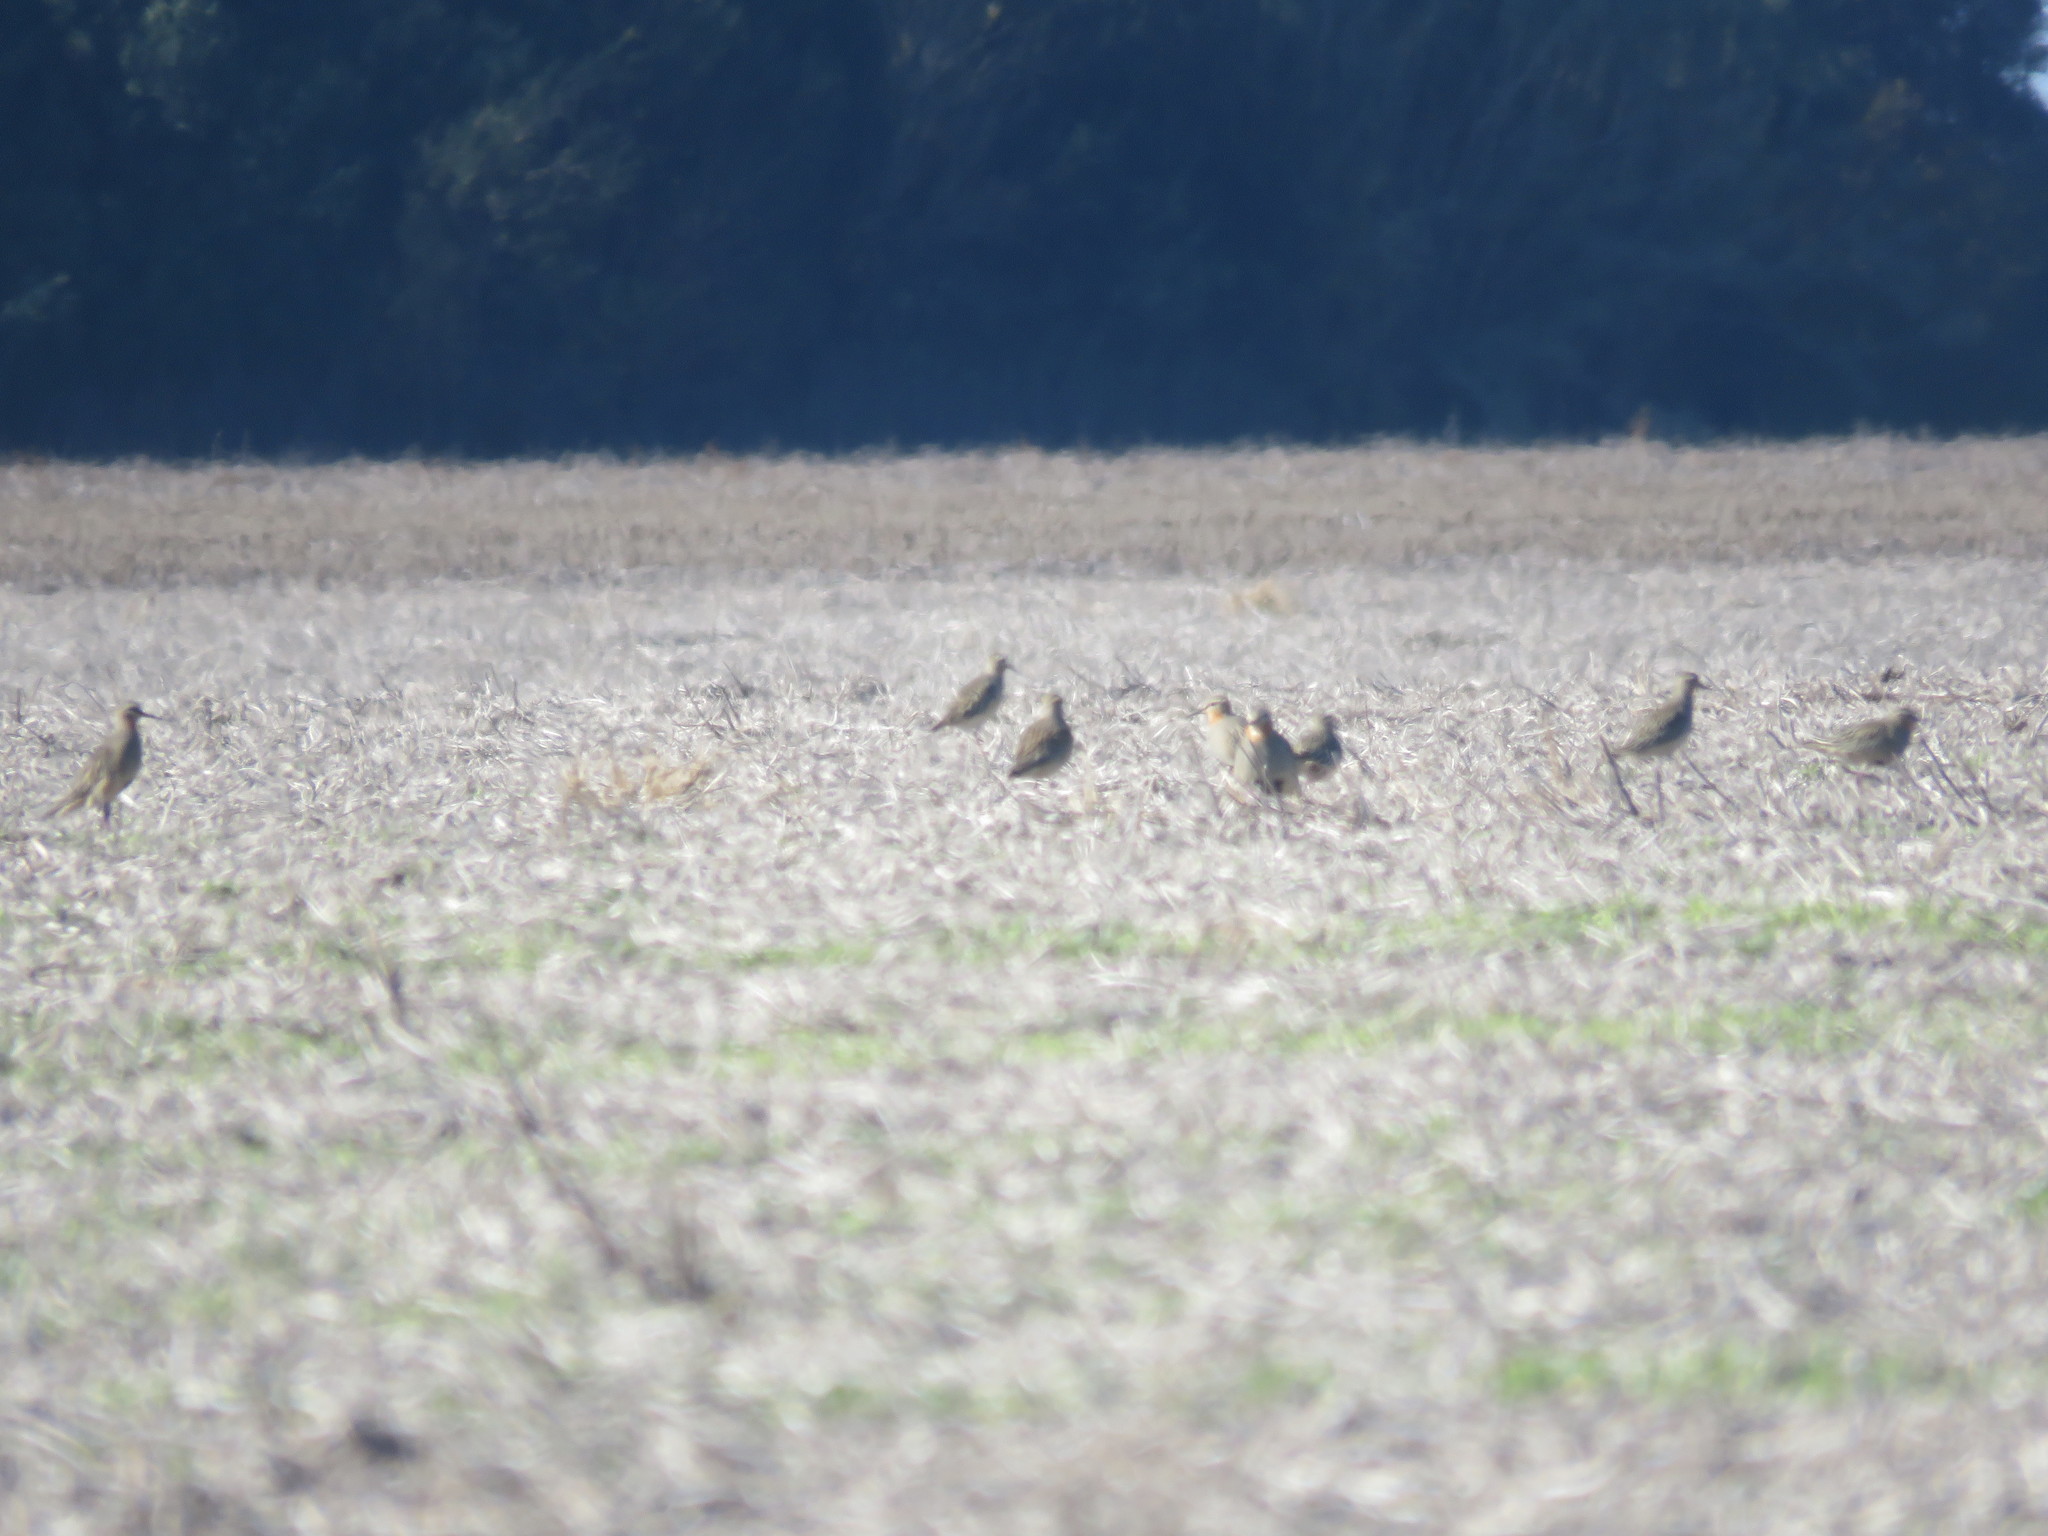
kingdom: Animalia
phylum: Chordata
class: Aves
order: Charadriiformes
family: Charadriidae
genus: Oreopholus
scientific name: Oreopholus ruficollis
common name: Tawny-throated dotterel
